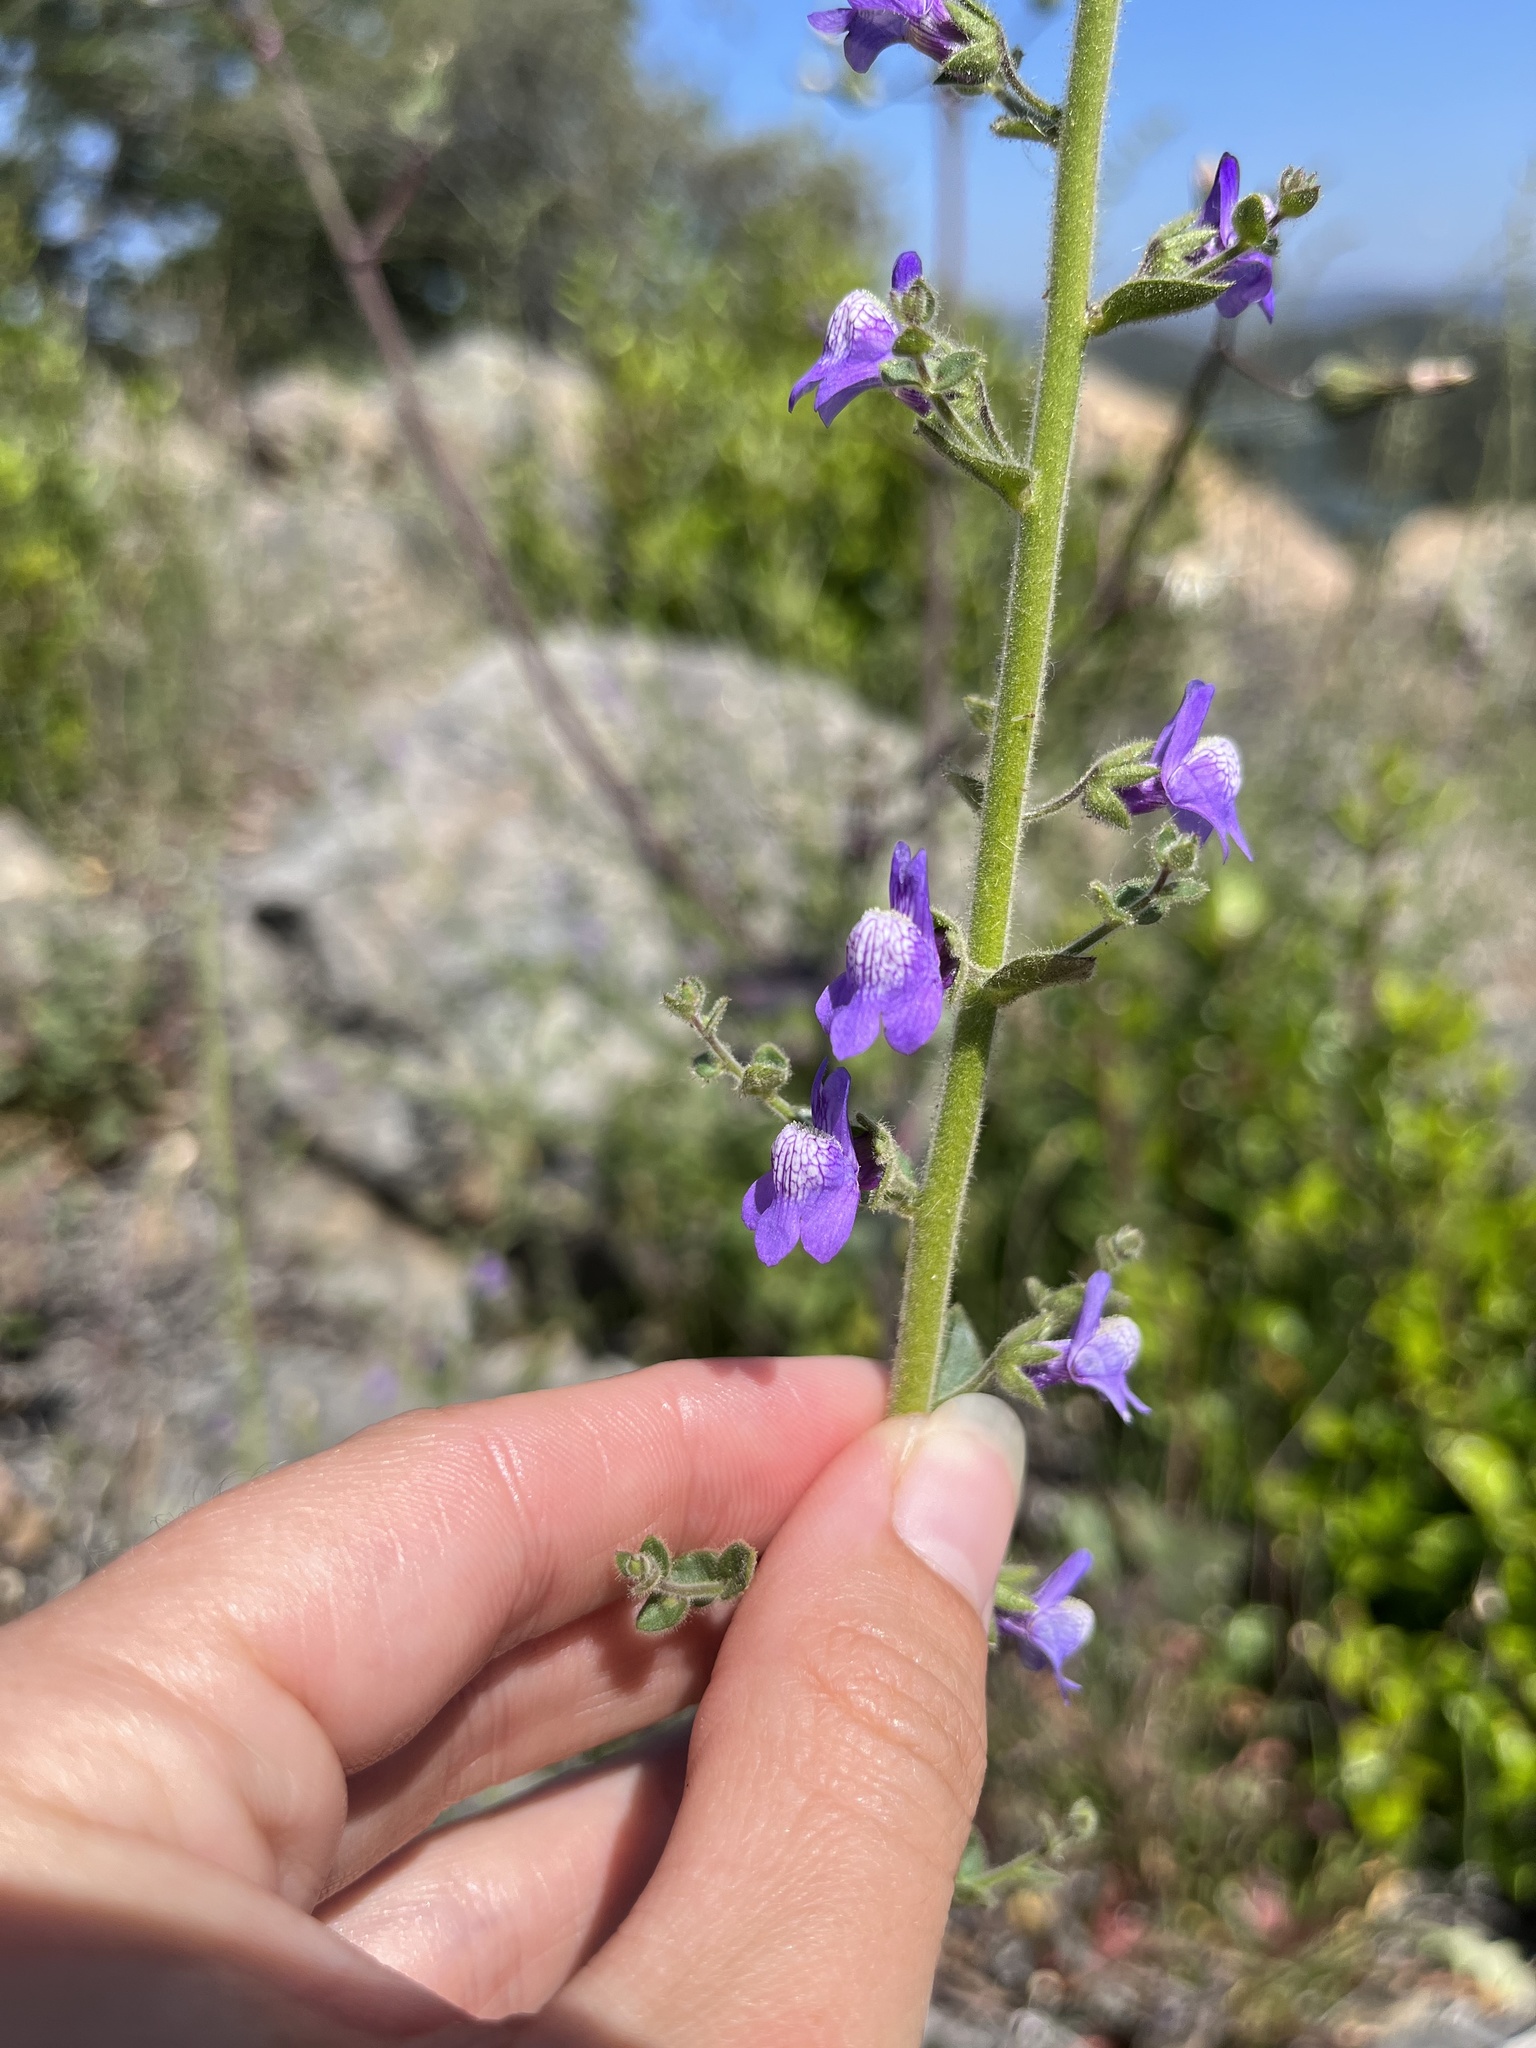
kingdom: Plantae
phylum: Tracheophyta
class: Magnoliopsida
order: Lamiales
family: Plantaginaceae
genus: Sairocarpus
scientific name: Sairocarpus nuttallianus
